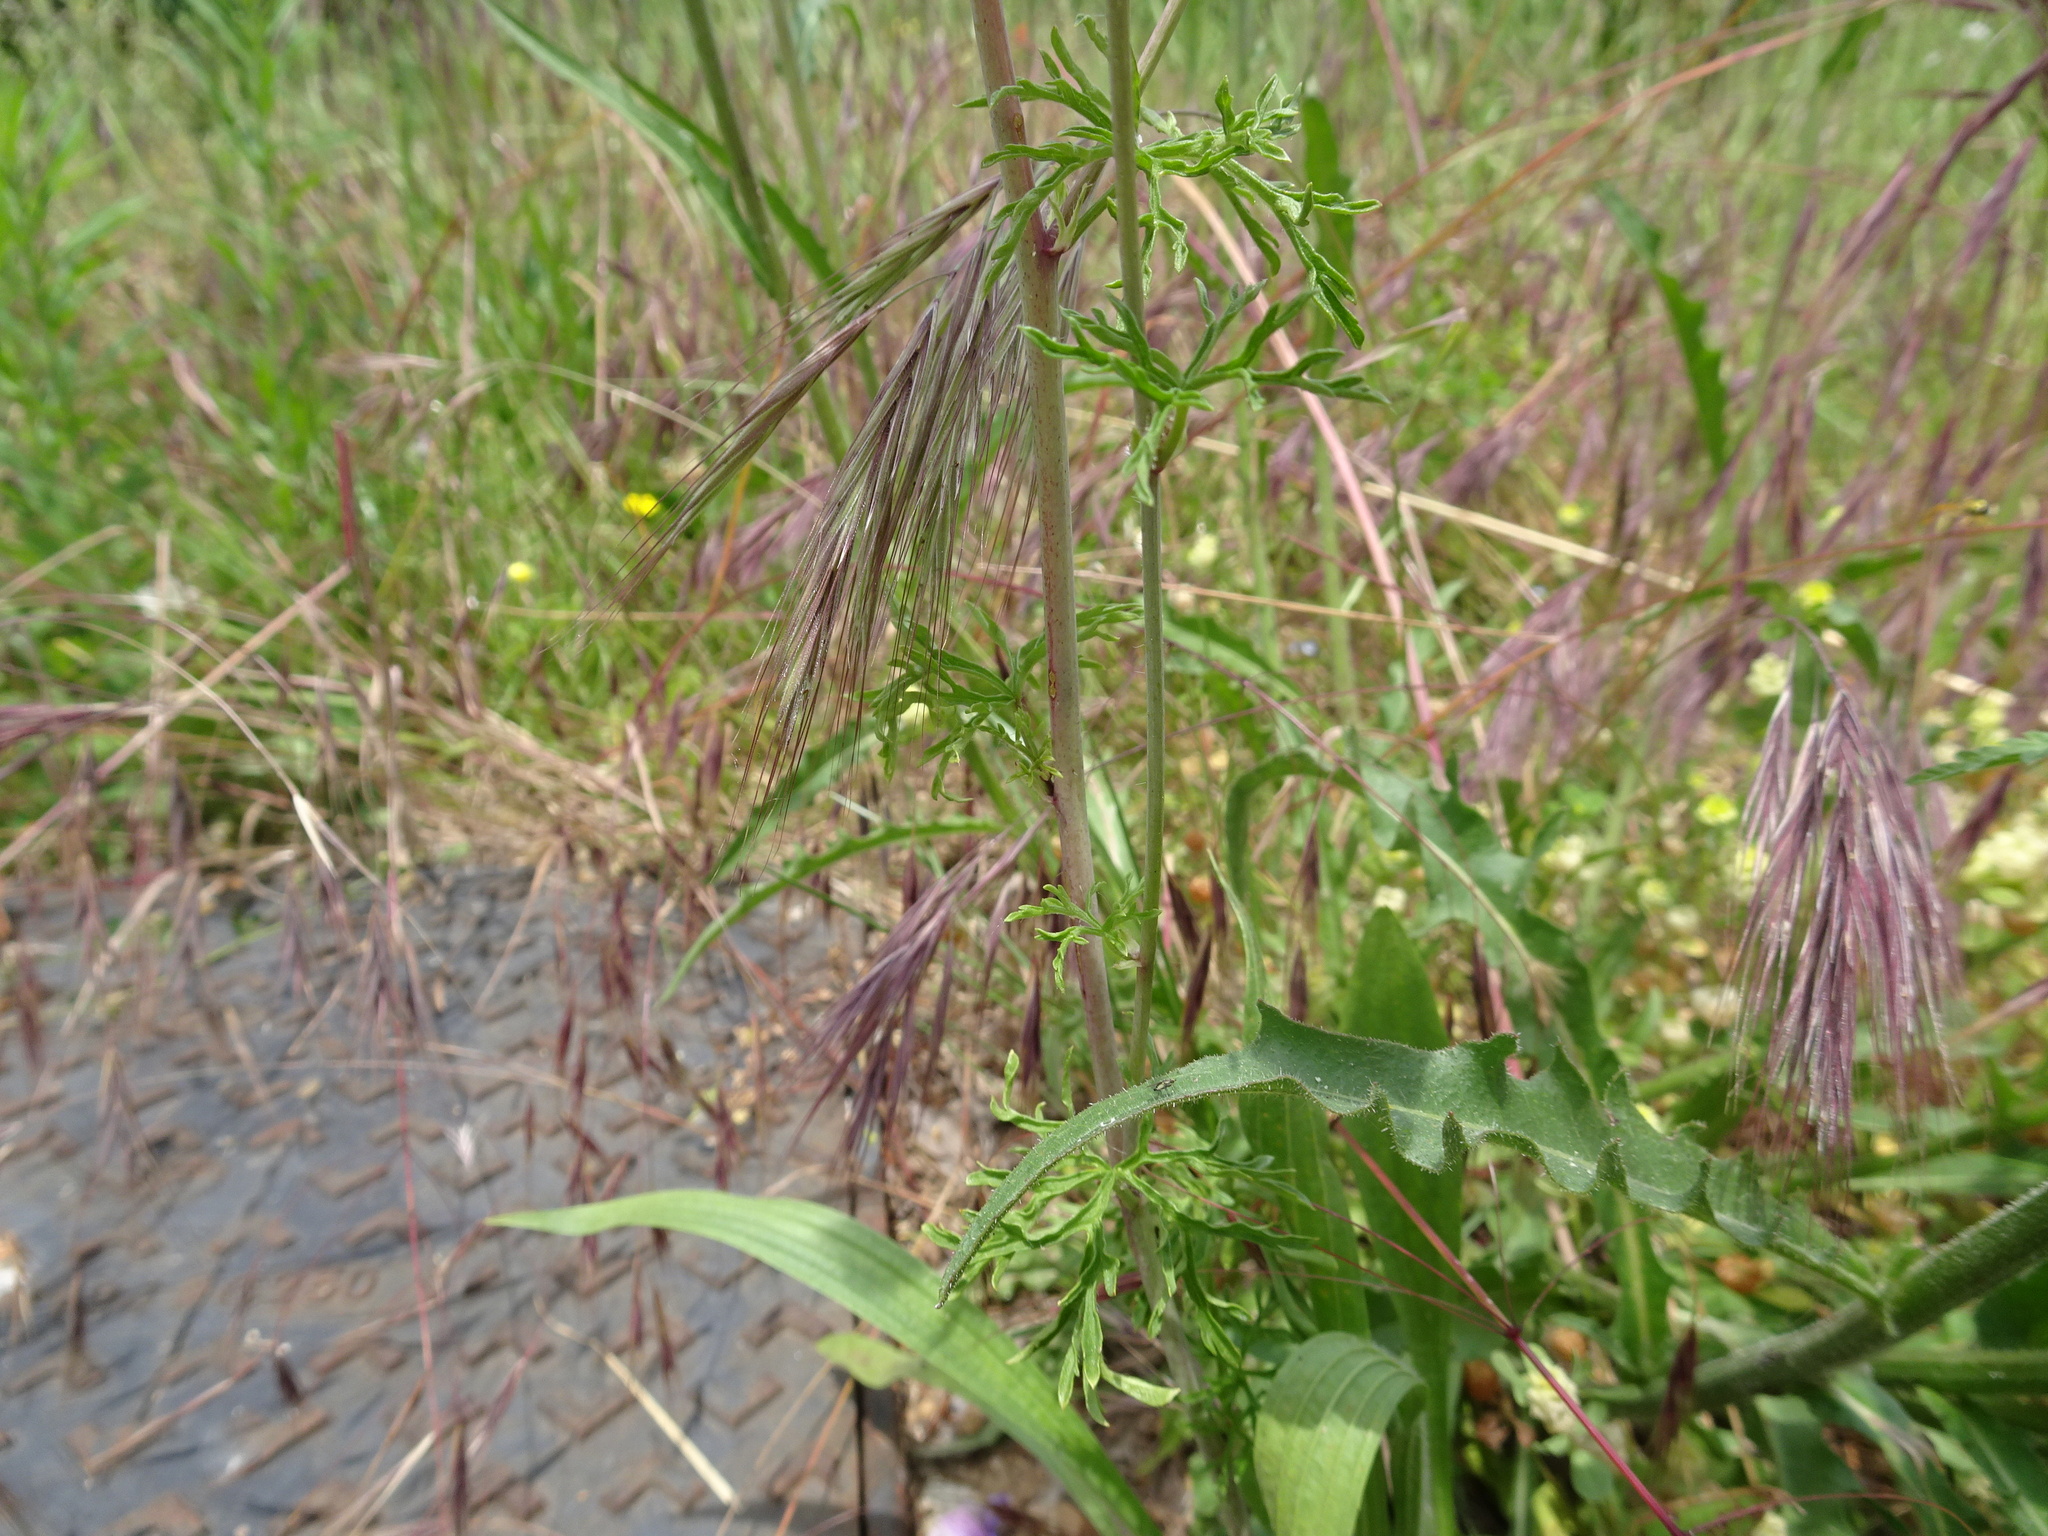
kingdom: Plantae
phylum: Tracheophyta
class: Magnoliopsida
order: Malvales
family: Malvaceae
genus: Malva
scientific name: Malva moschata
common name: Musk mallow
